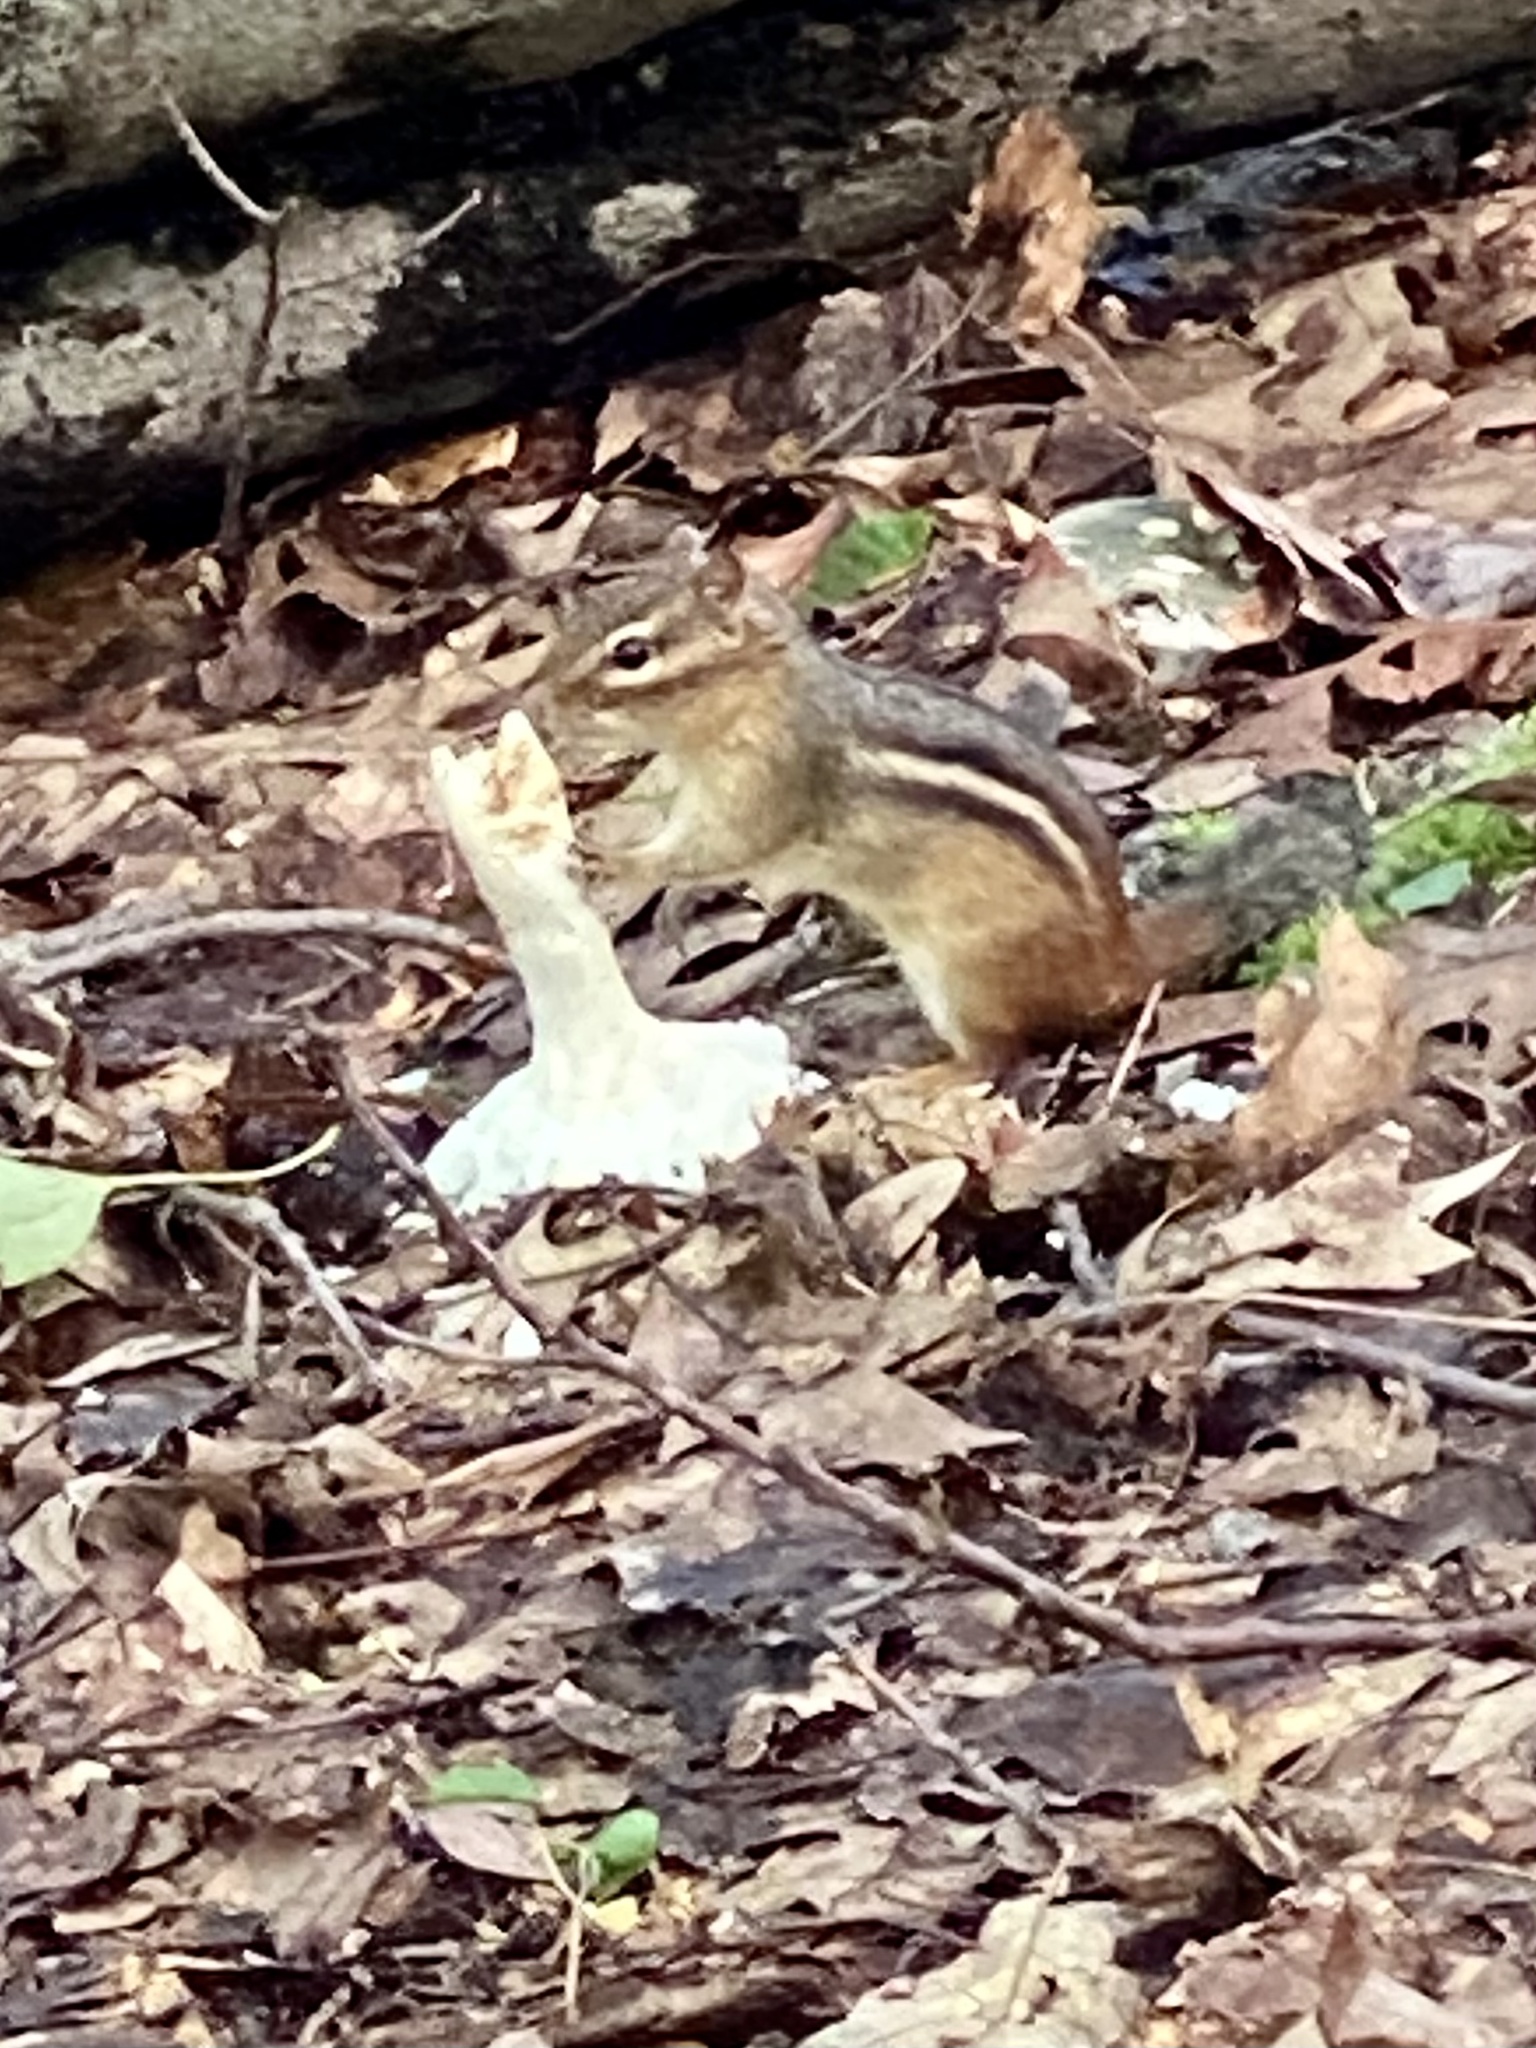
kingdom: Animalia
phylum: Chordata
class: Mammalia
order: Rodentia
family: Sciuridae
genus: Tamias
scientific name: Tamias striatus
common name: Eastern chipmunk
